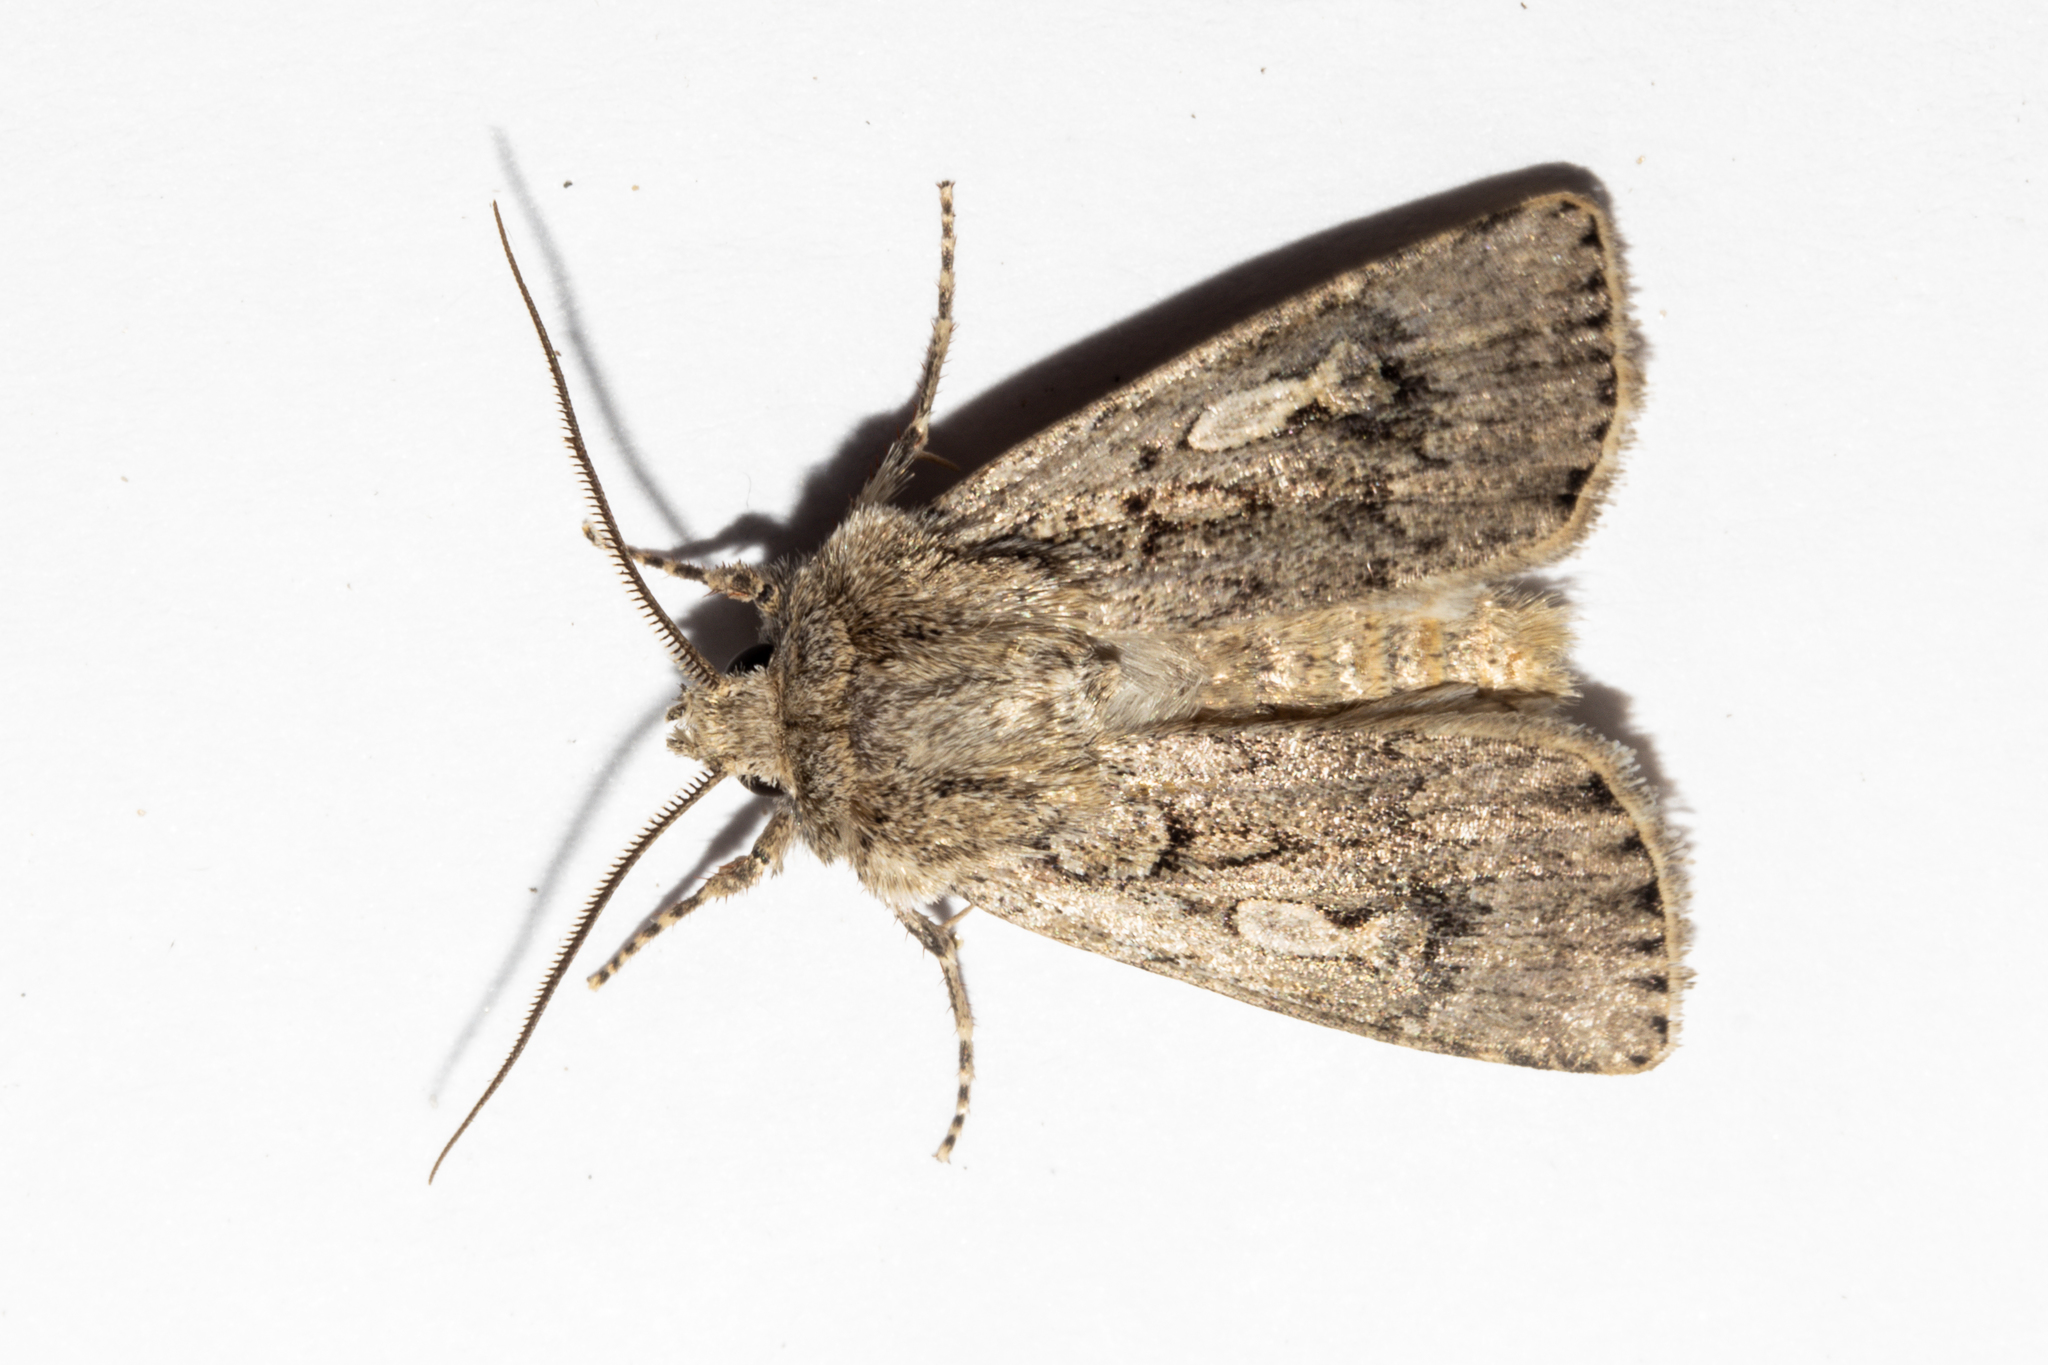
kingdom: Animalia
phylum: Arthropoda
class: Insecta
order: Lepidoptera
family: Noctuidae
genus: Agrotis
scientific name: Agrotis admirationis
